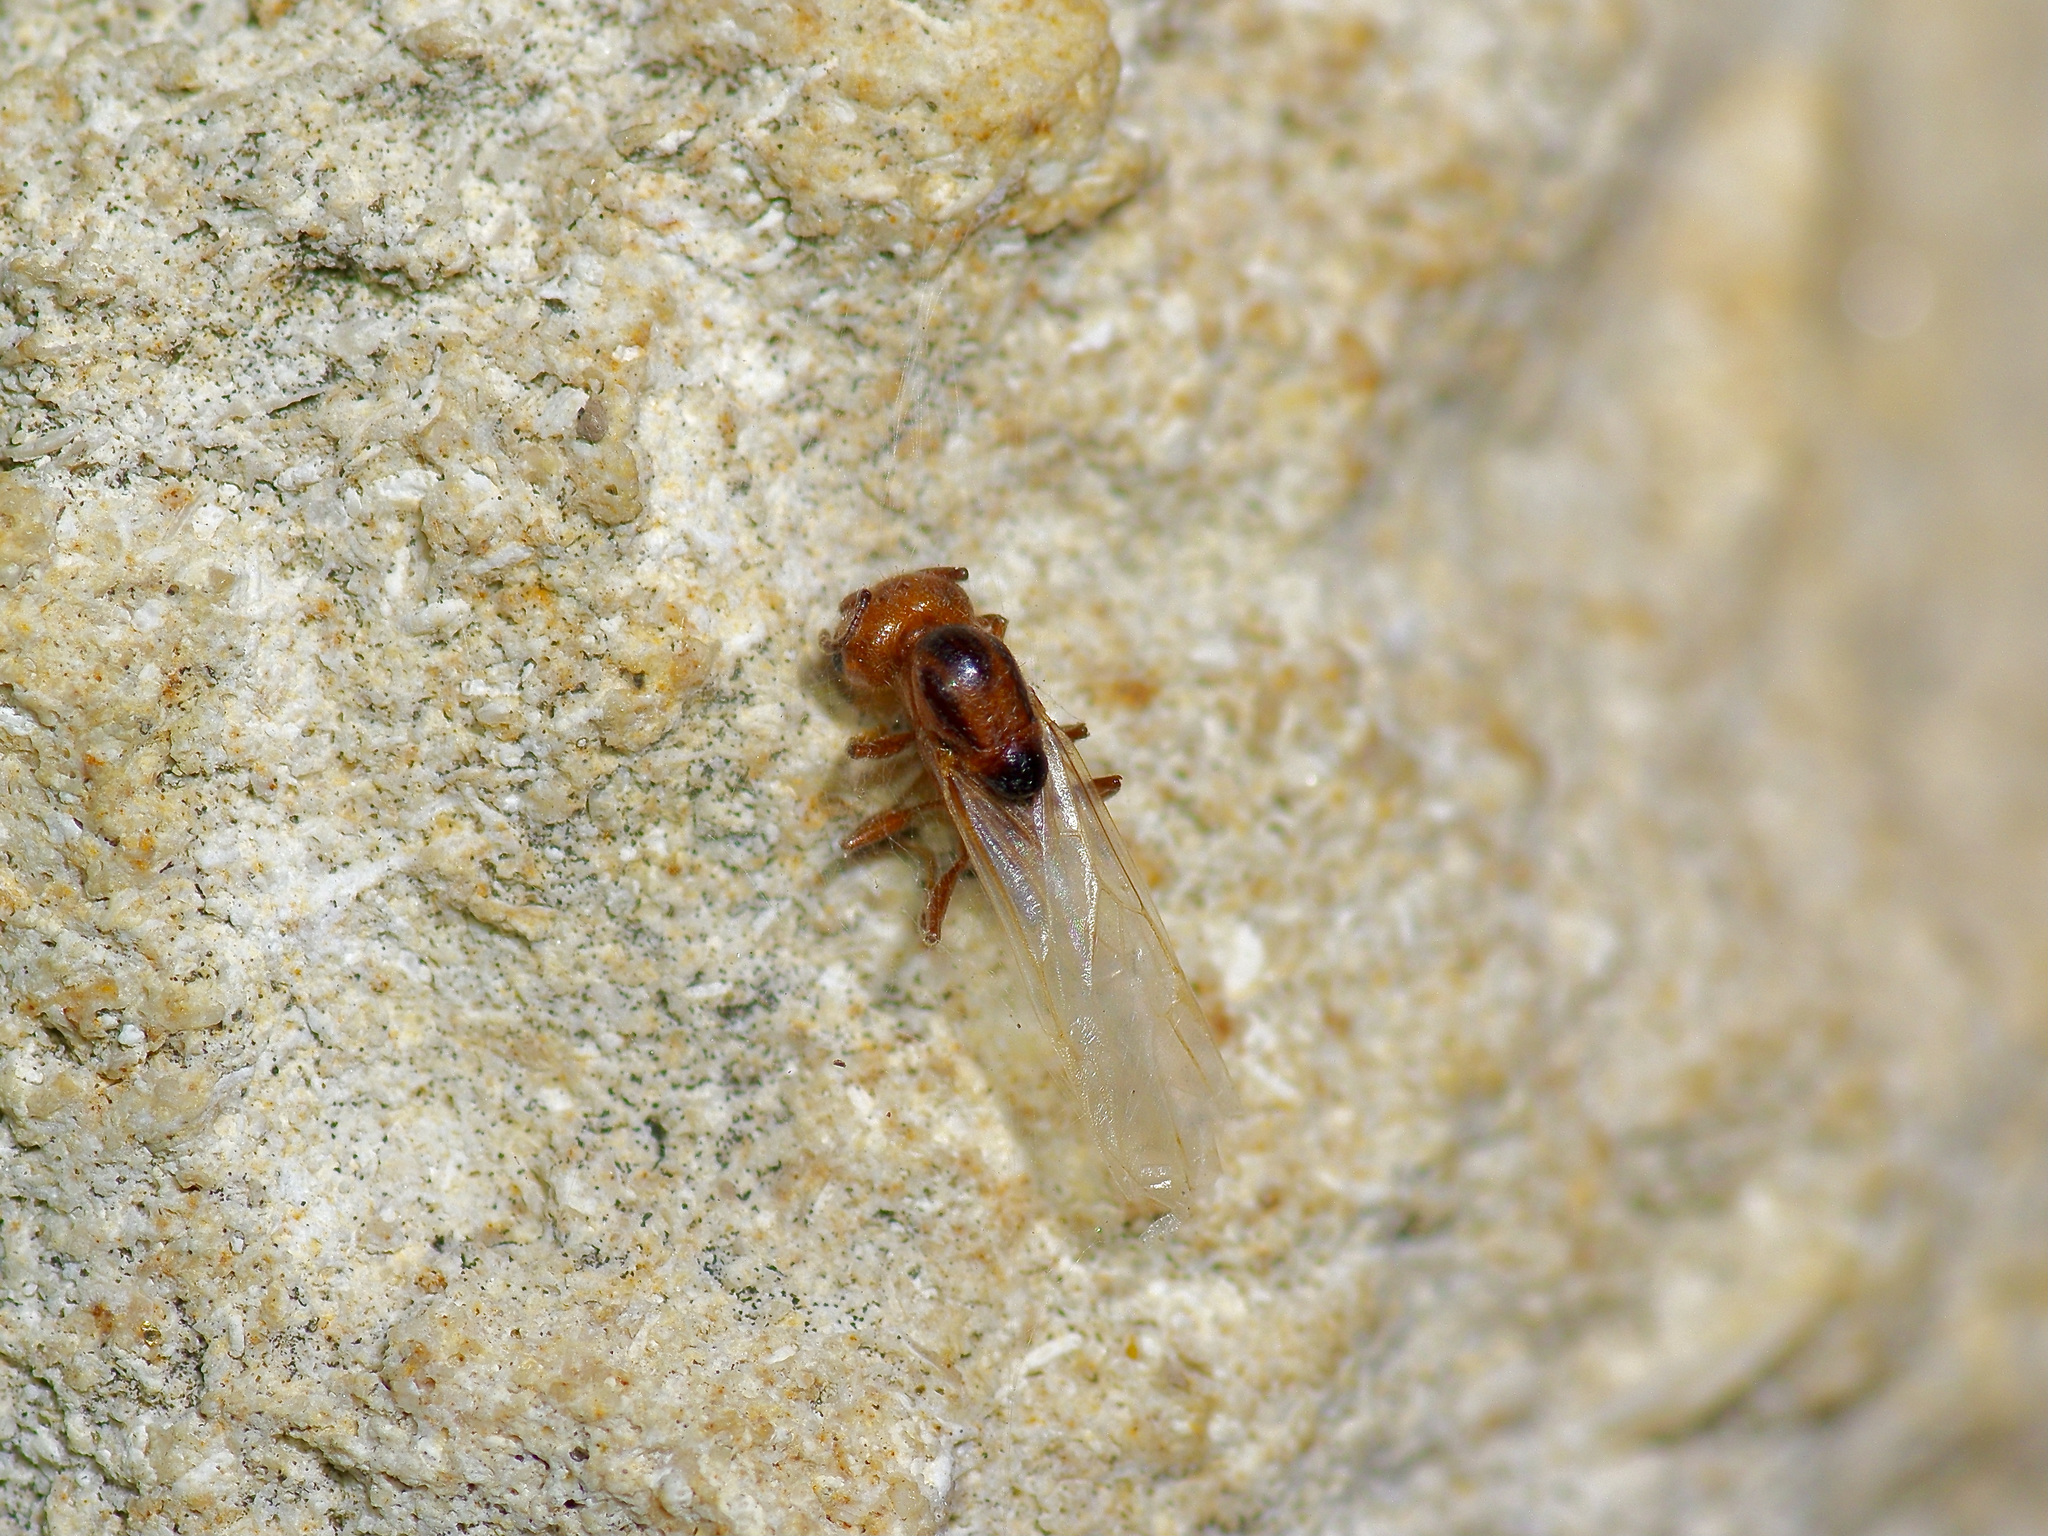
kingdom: Animalia
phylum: Arthropoda
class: Insecta
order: Hymenoptera
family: Formicidae
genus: Crematogaster
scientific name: Crematogaster laeviuscula
